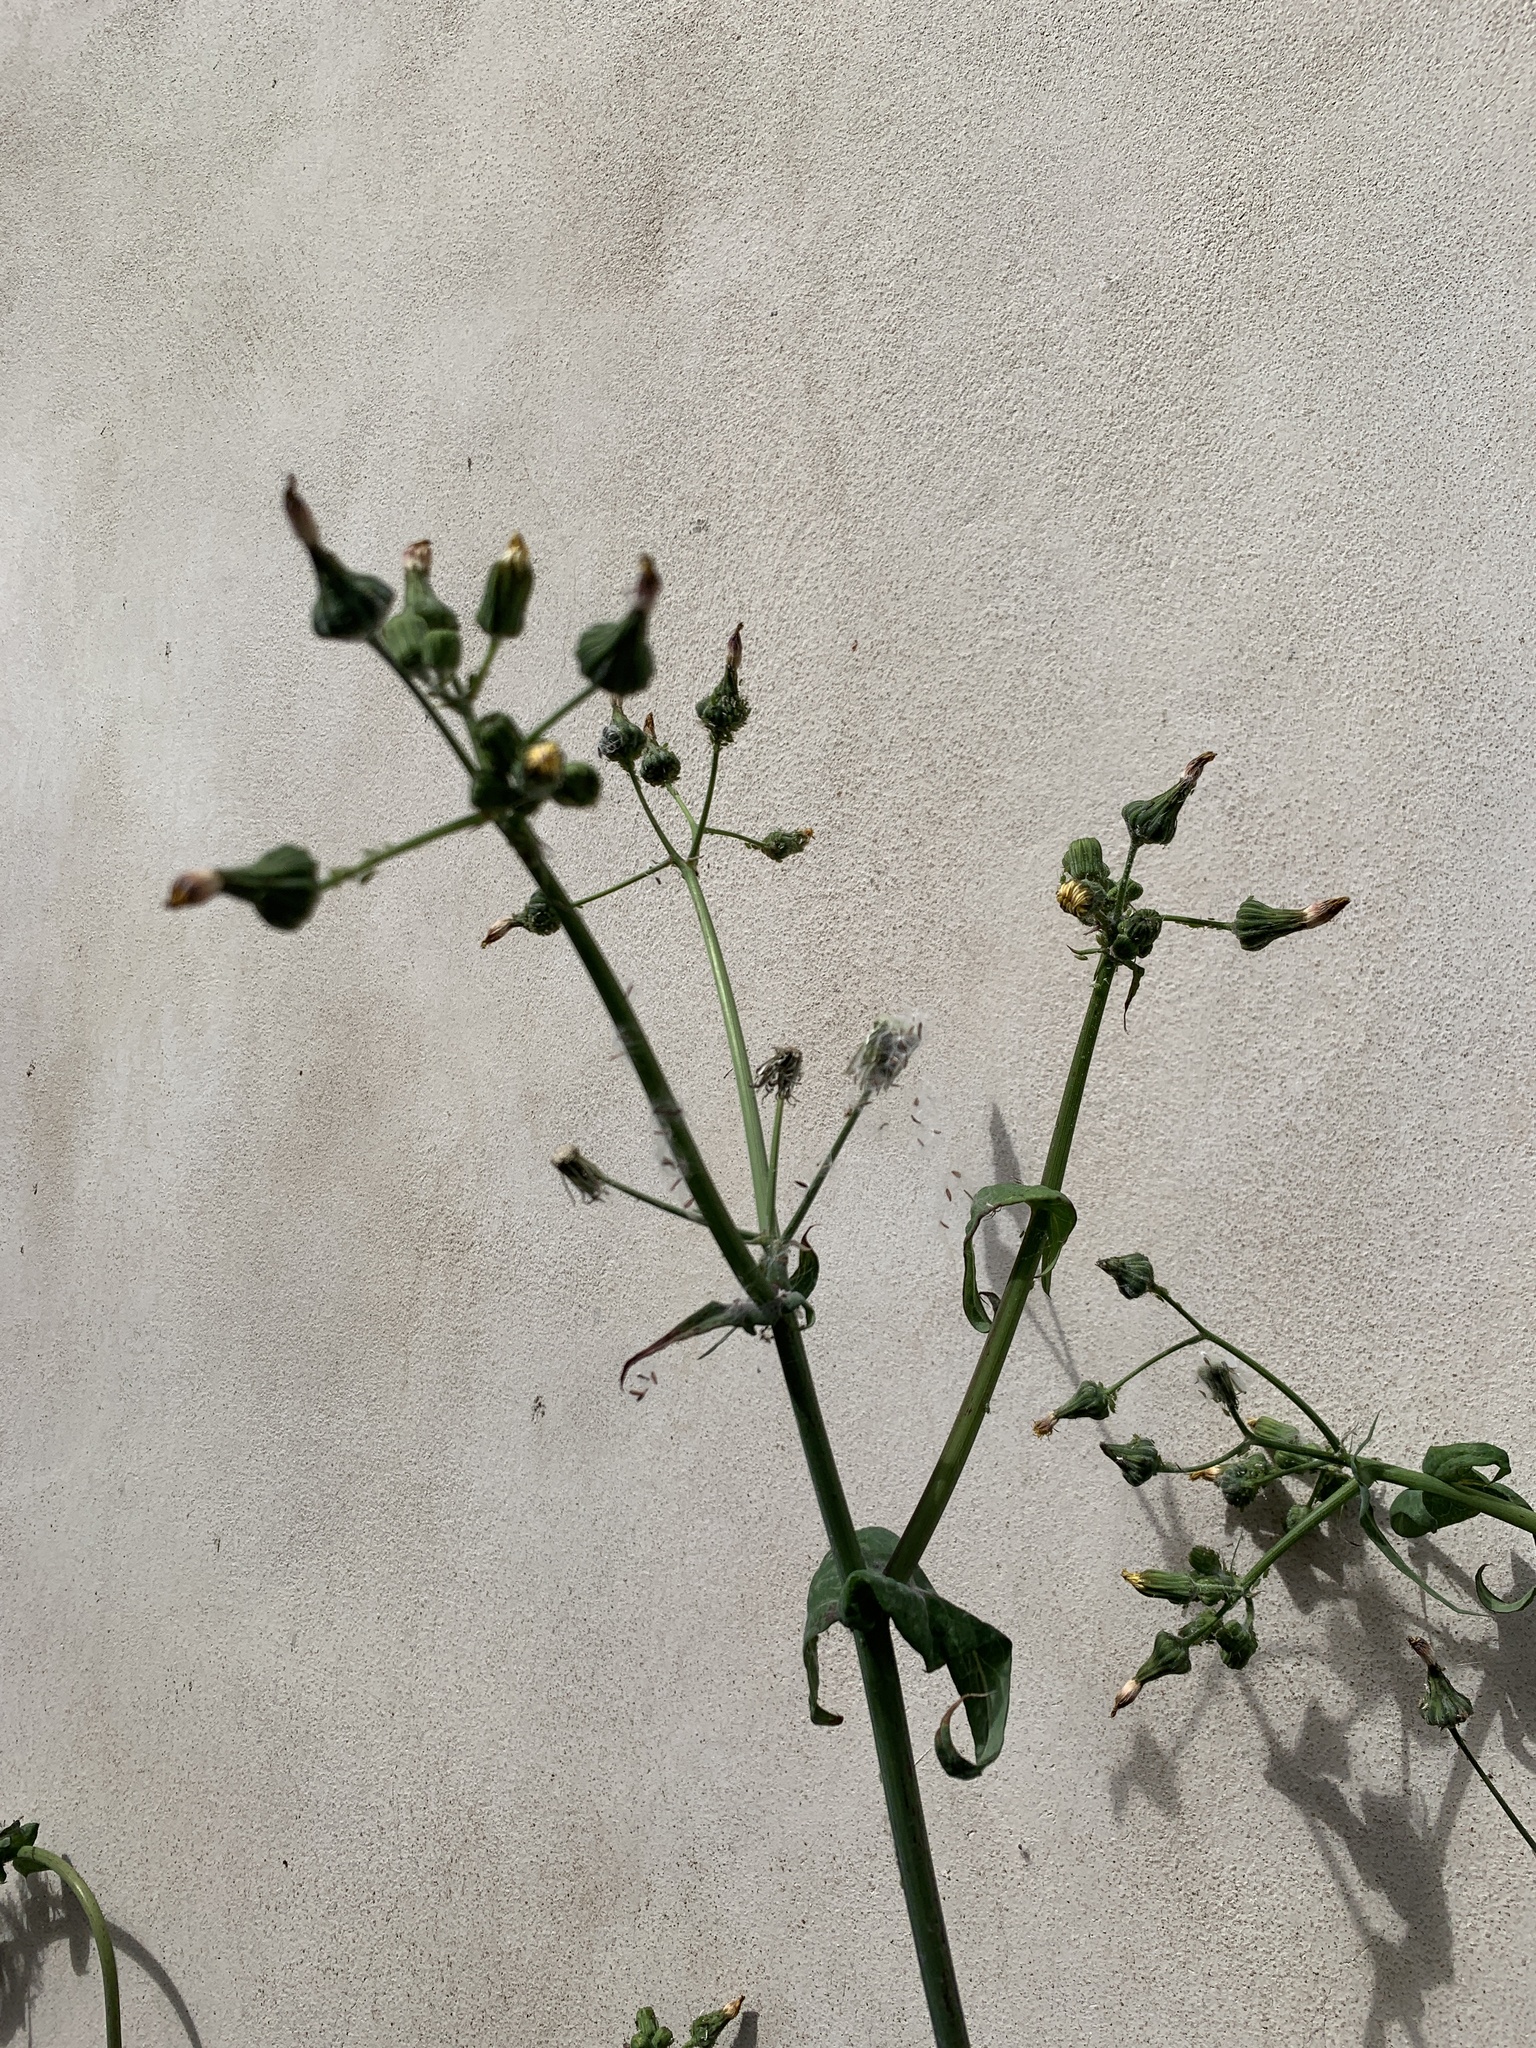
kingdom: Plantae
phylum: Tracheophyta
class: Magnoliopsida
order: Asterales
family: Asteraceae
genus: Sonchus
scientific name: Sonchus oleraceus
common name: Common sowthistle
